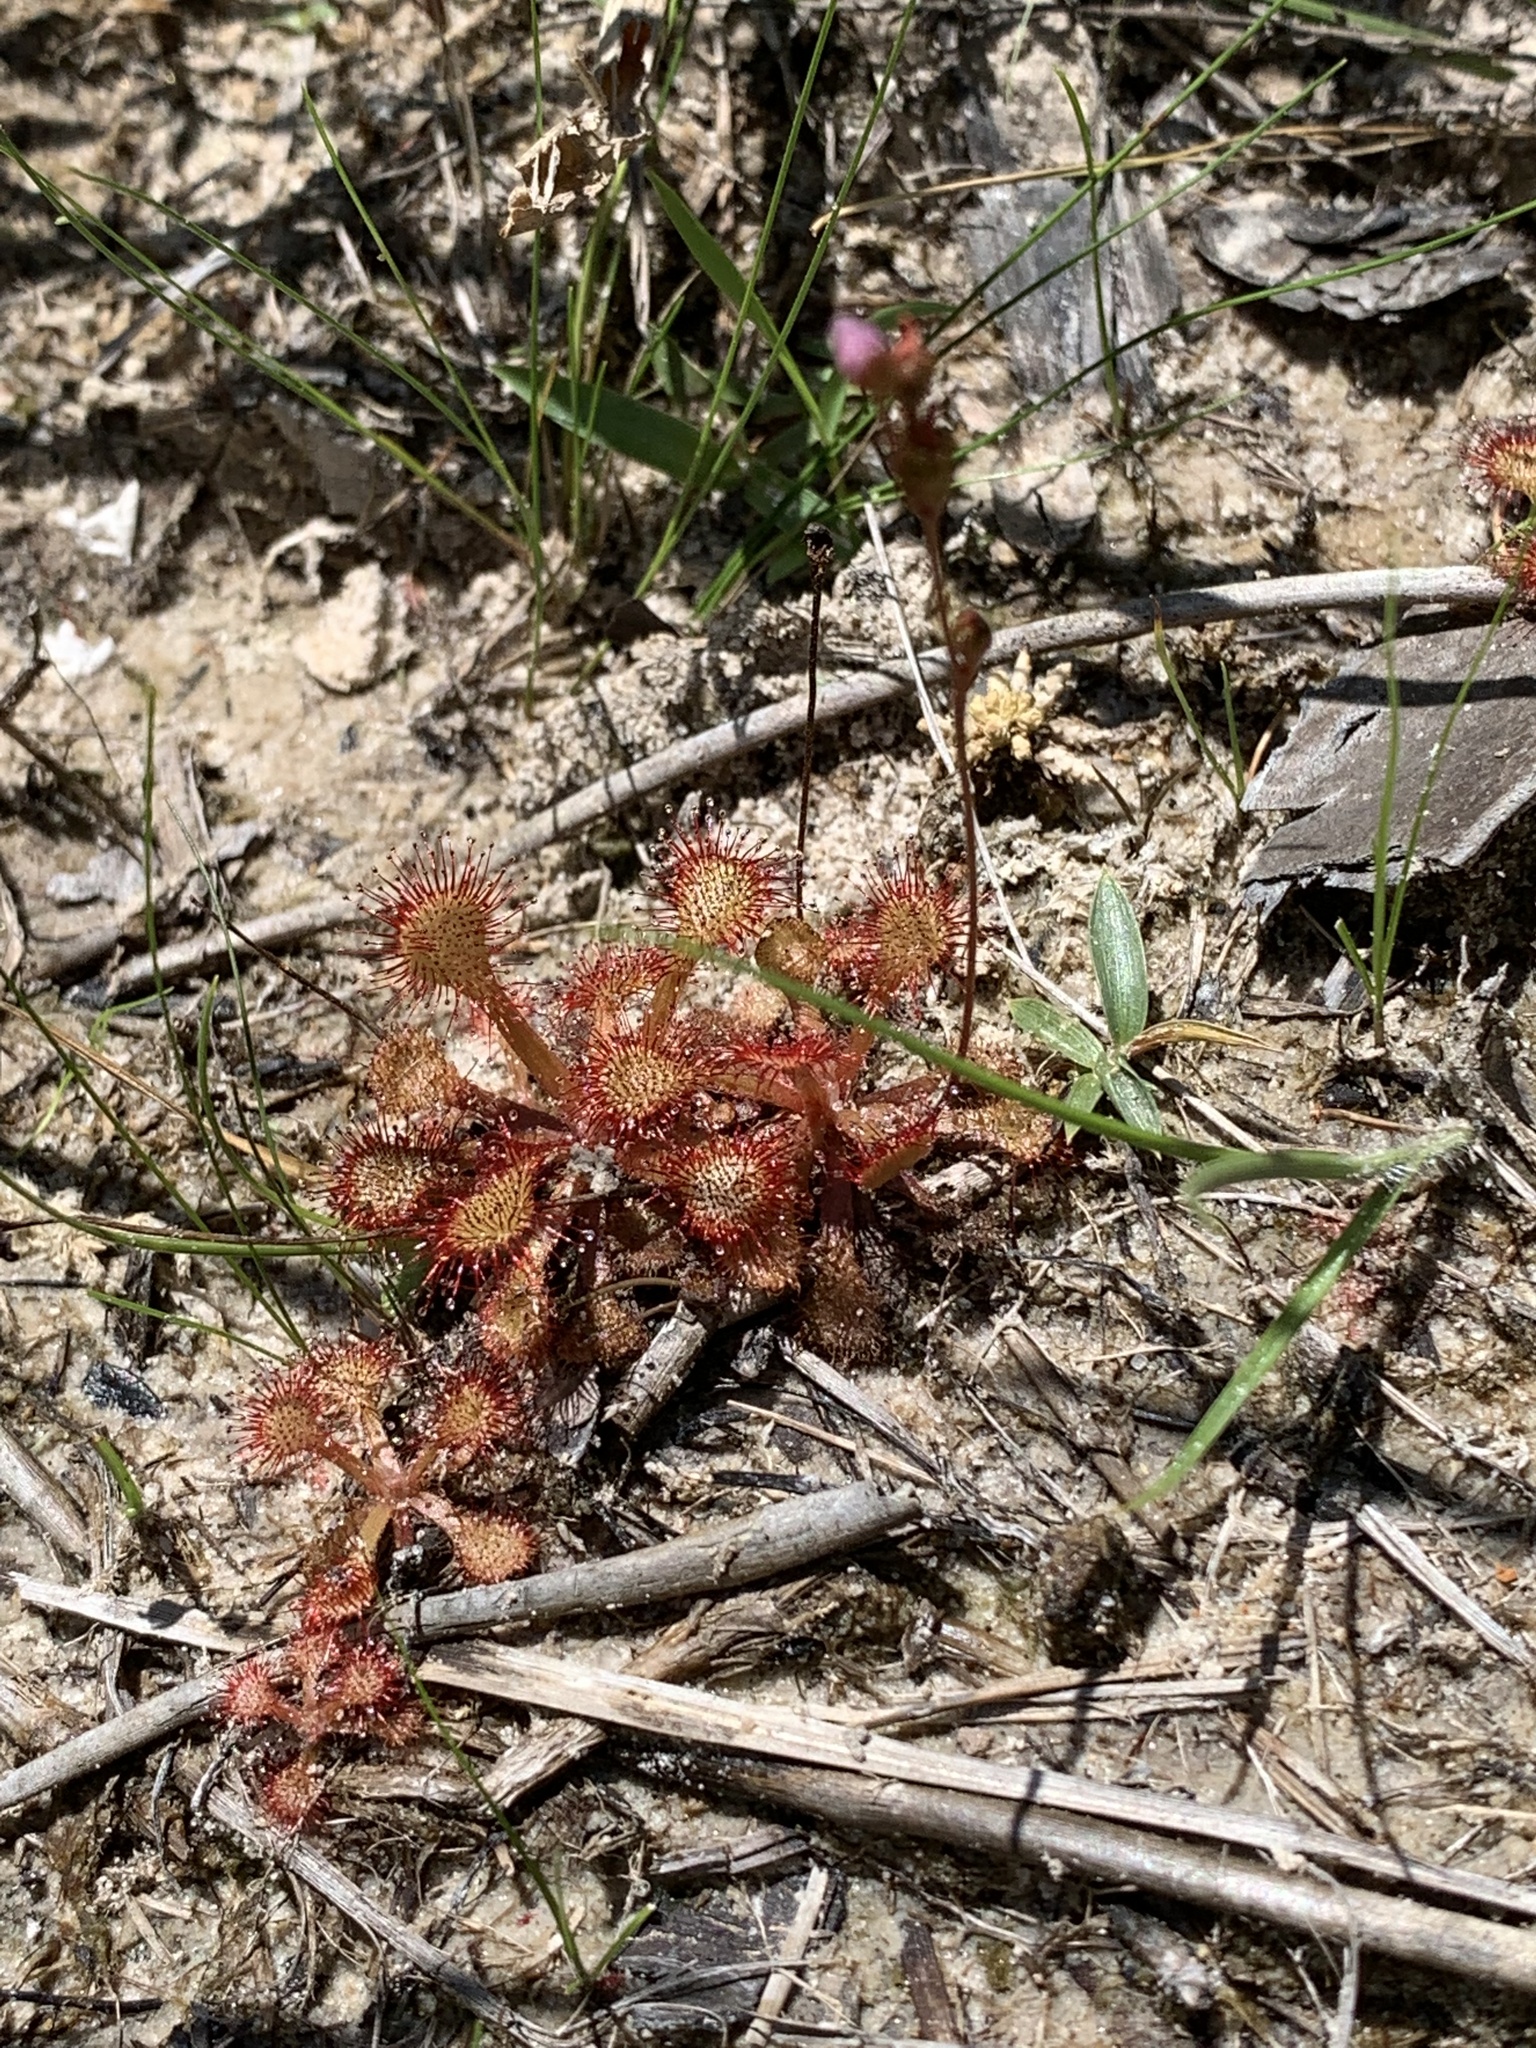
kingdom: Plantae
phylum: Tracheophyta
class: Magnoliopsida
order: Caryophyllales
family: Droseraceae
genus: Drosera
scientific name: Drosera capillaris
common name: Pink sundew
